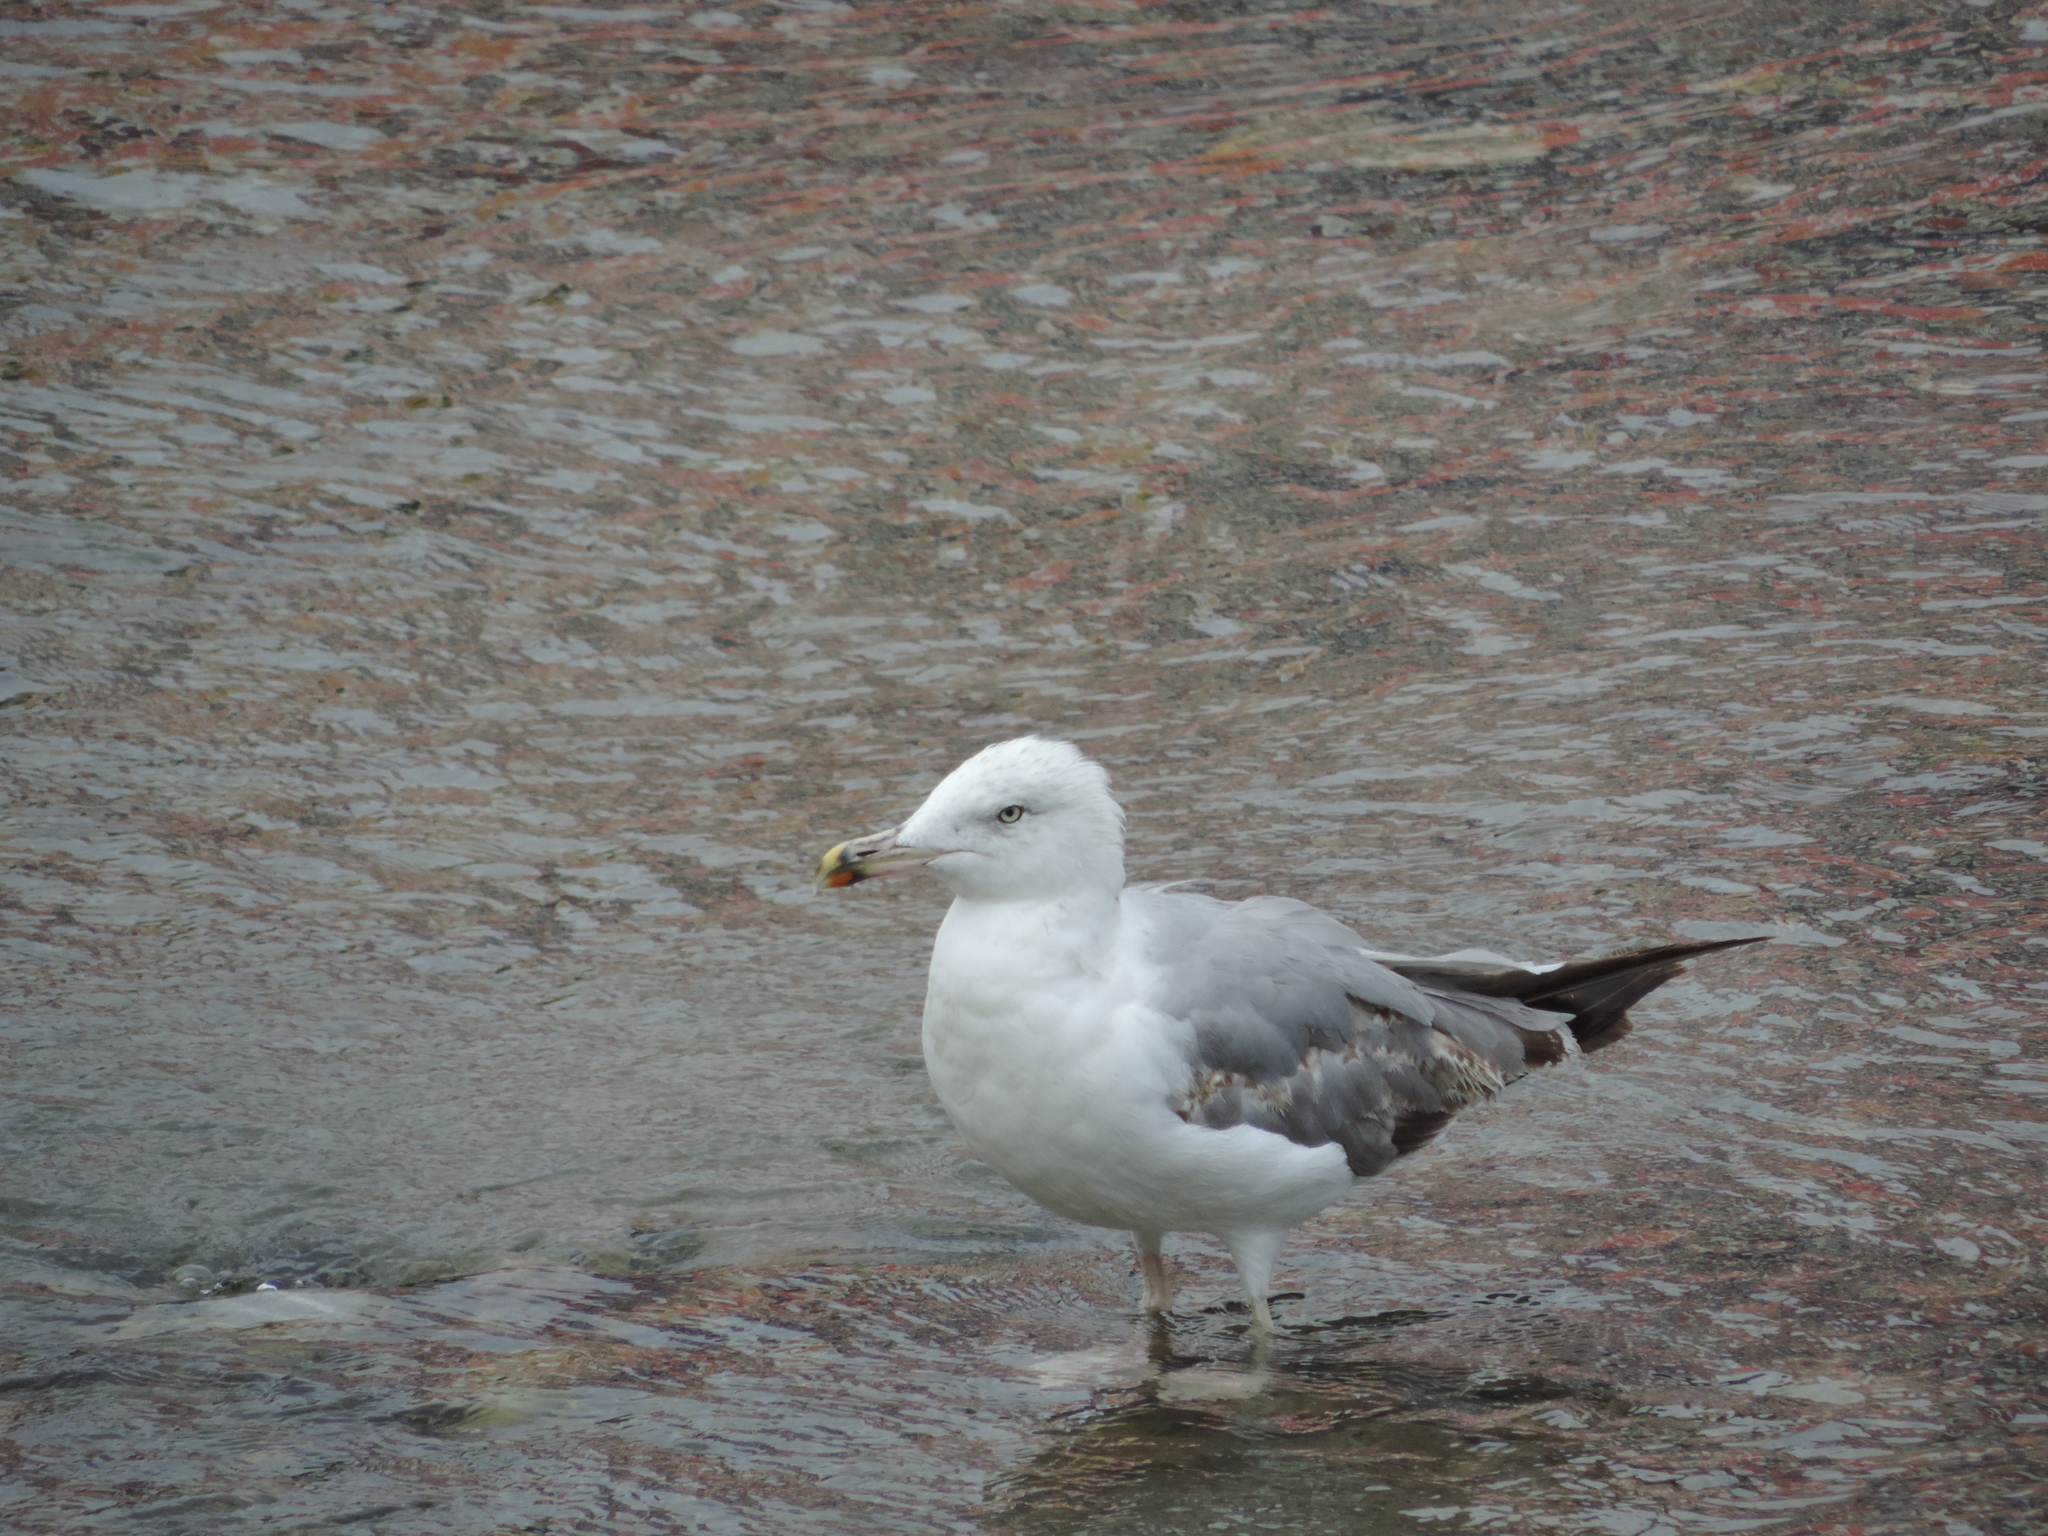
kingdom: Animalia
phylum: Chordata
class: Aves
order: Charadriiformes
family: Laridae
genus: Larus
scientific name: Larus michahellis
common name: Yellow-legged gull
